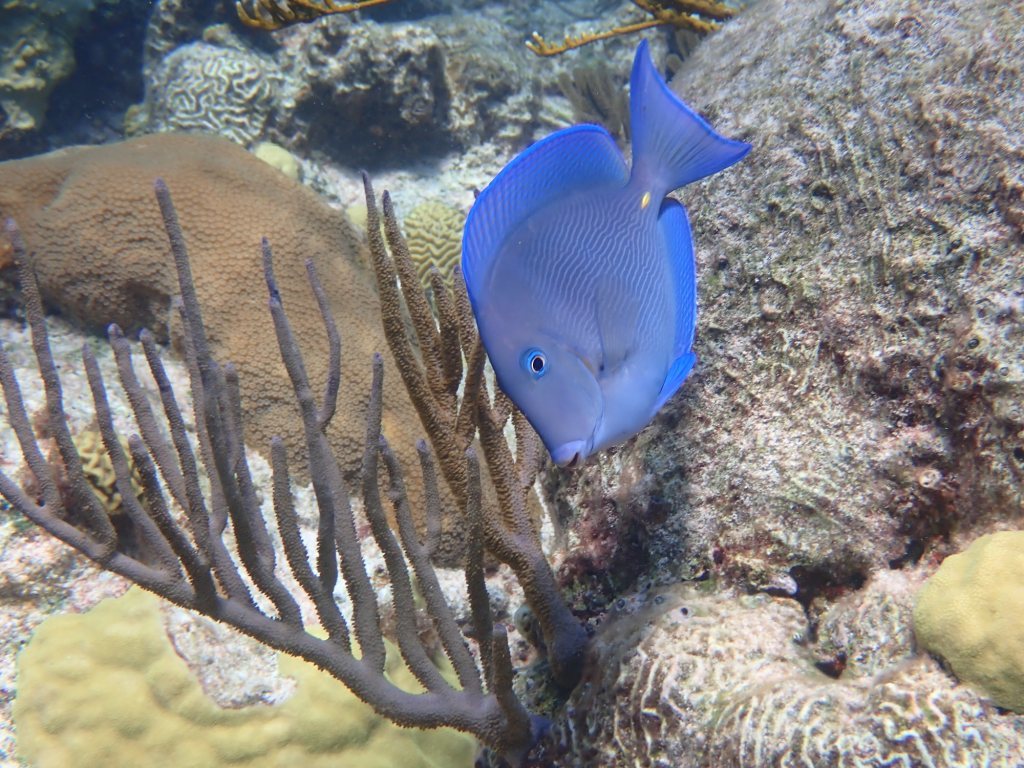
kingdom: Animalia
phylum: Chordata
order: Perciformes
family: Acanthuridae
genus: Acanthurus
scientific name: Acanthurus coeruleus
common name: Blue tang
